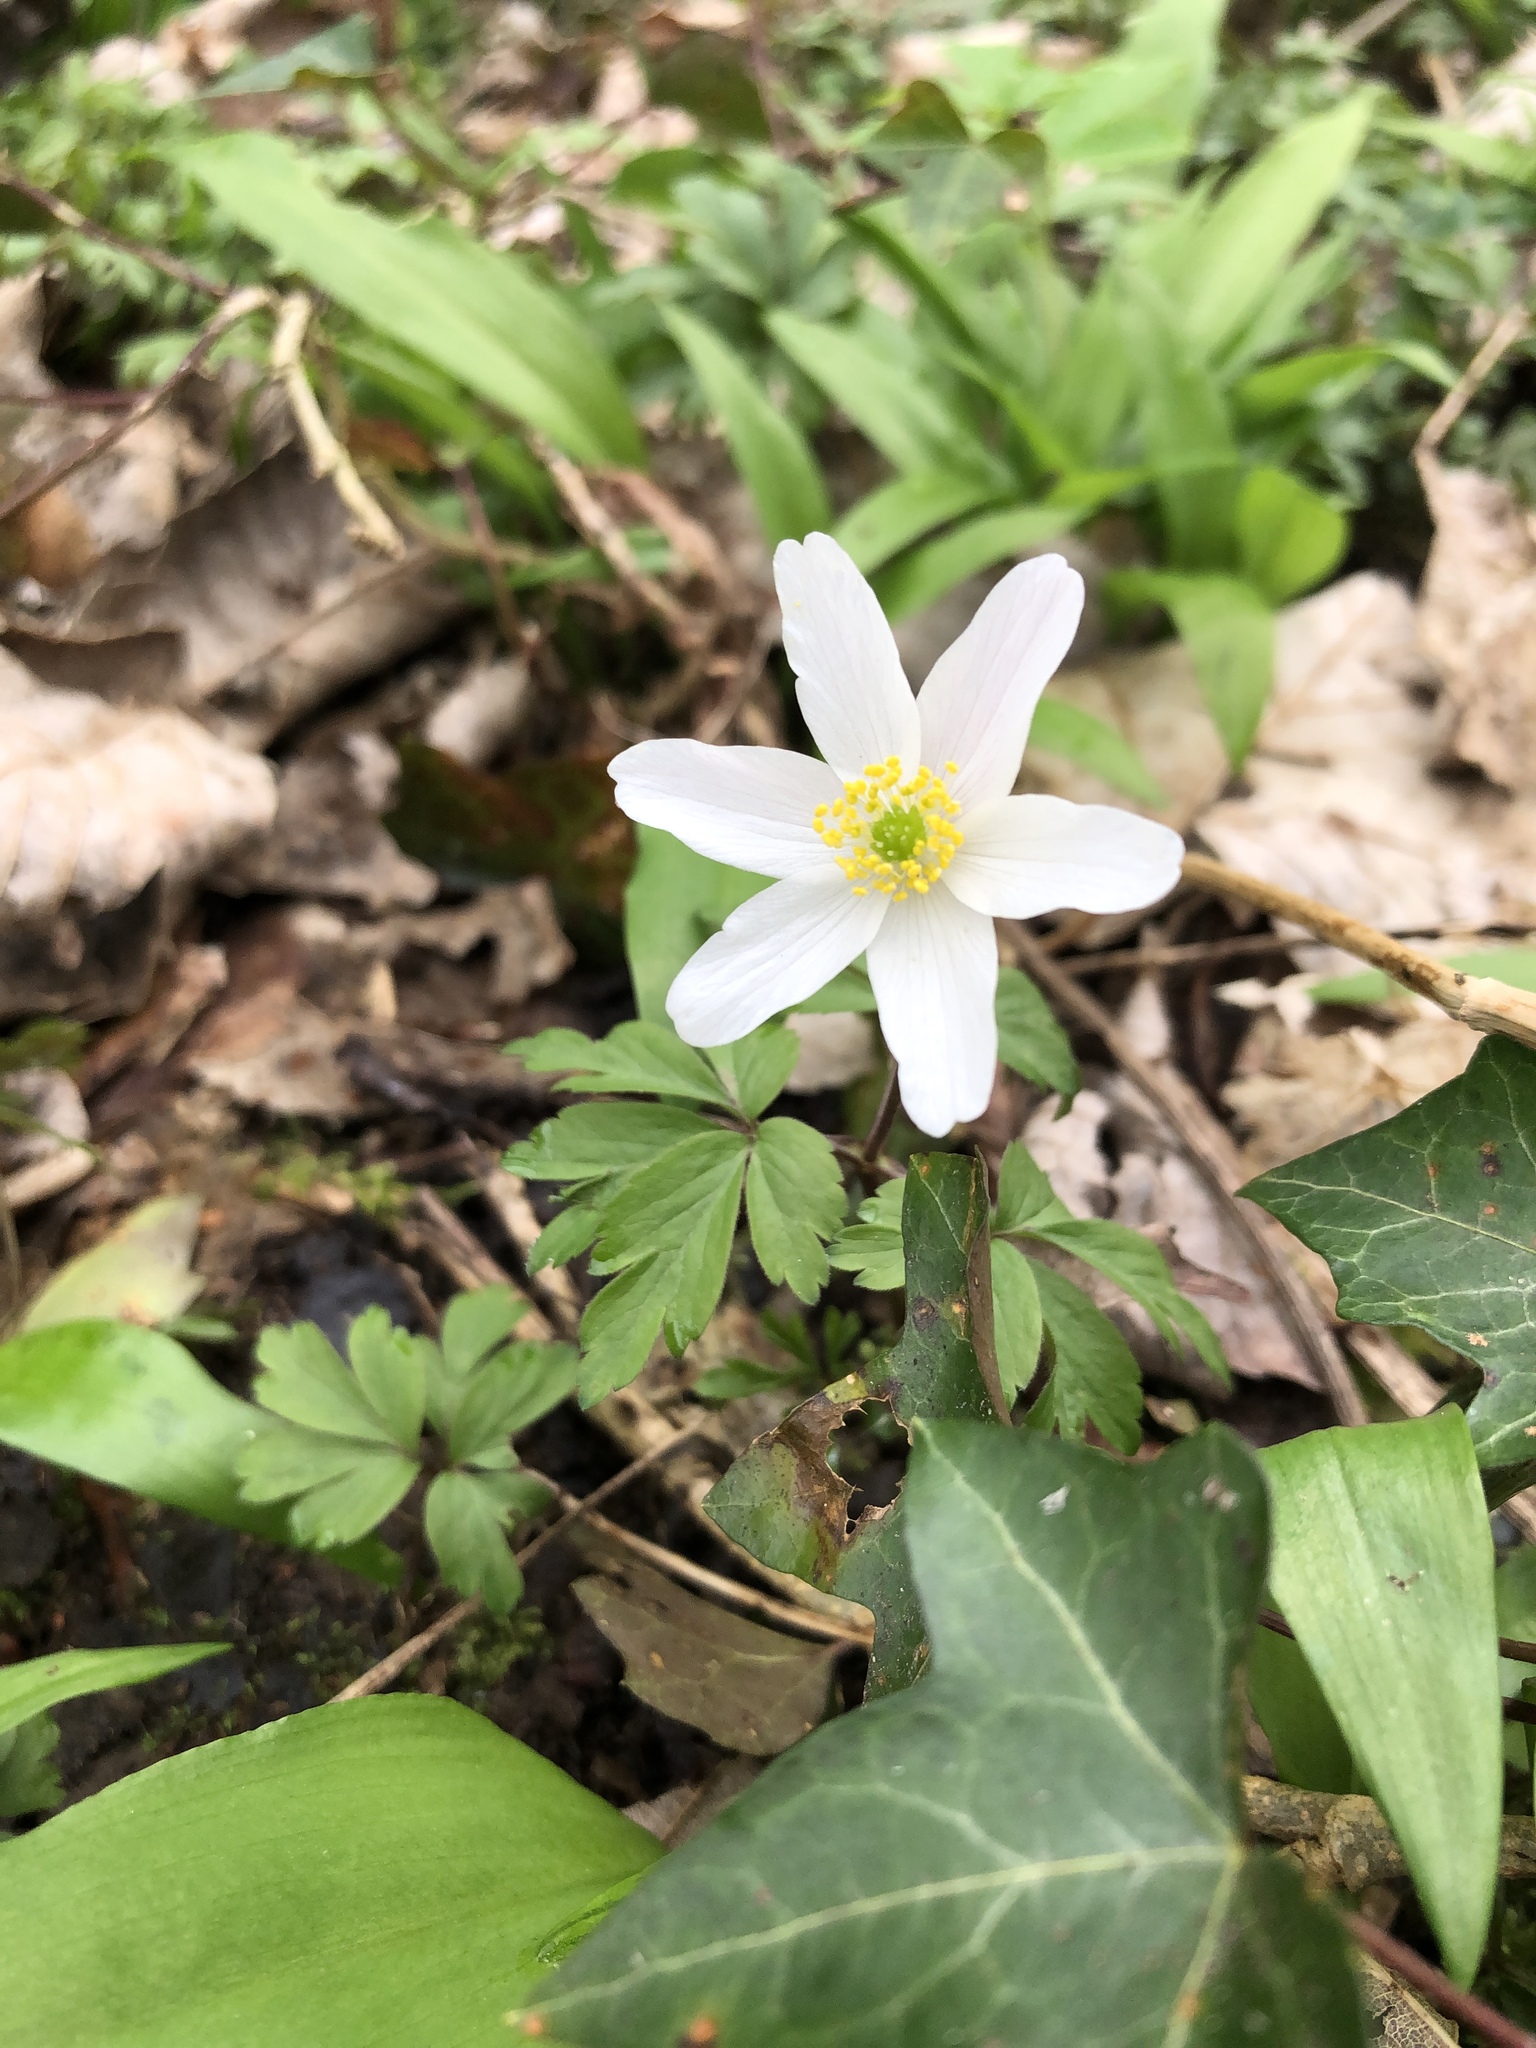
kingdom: Plantae
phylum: Tracheophyta
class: Magnoliopsida
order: Ranunculales
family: Ranunculaceae
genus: Anemone
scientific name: Anemone nemorosa
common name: Wood anemone
